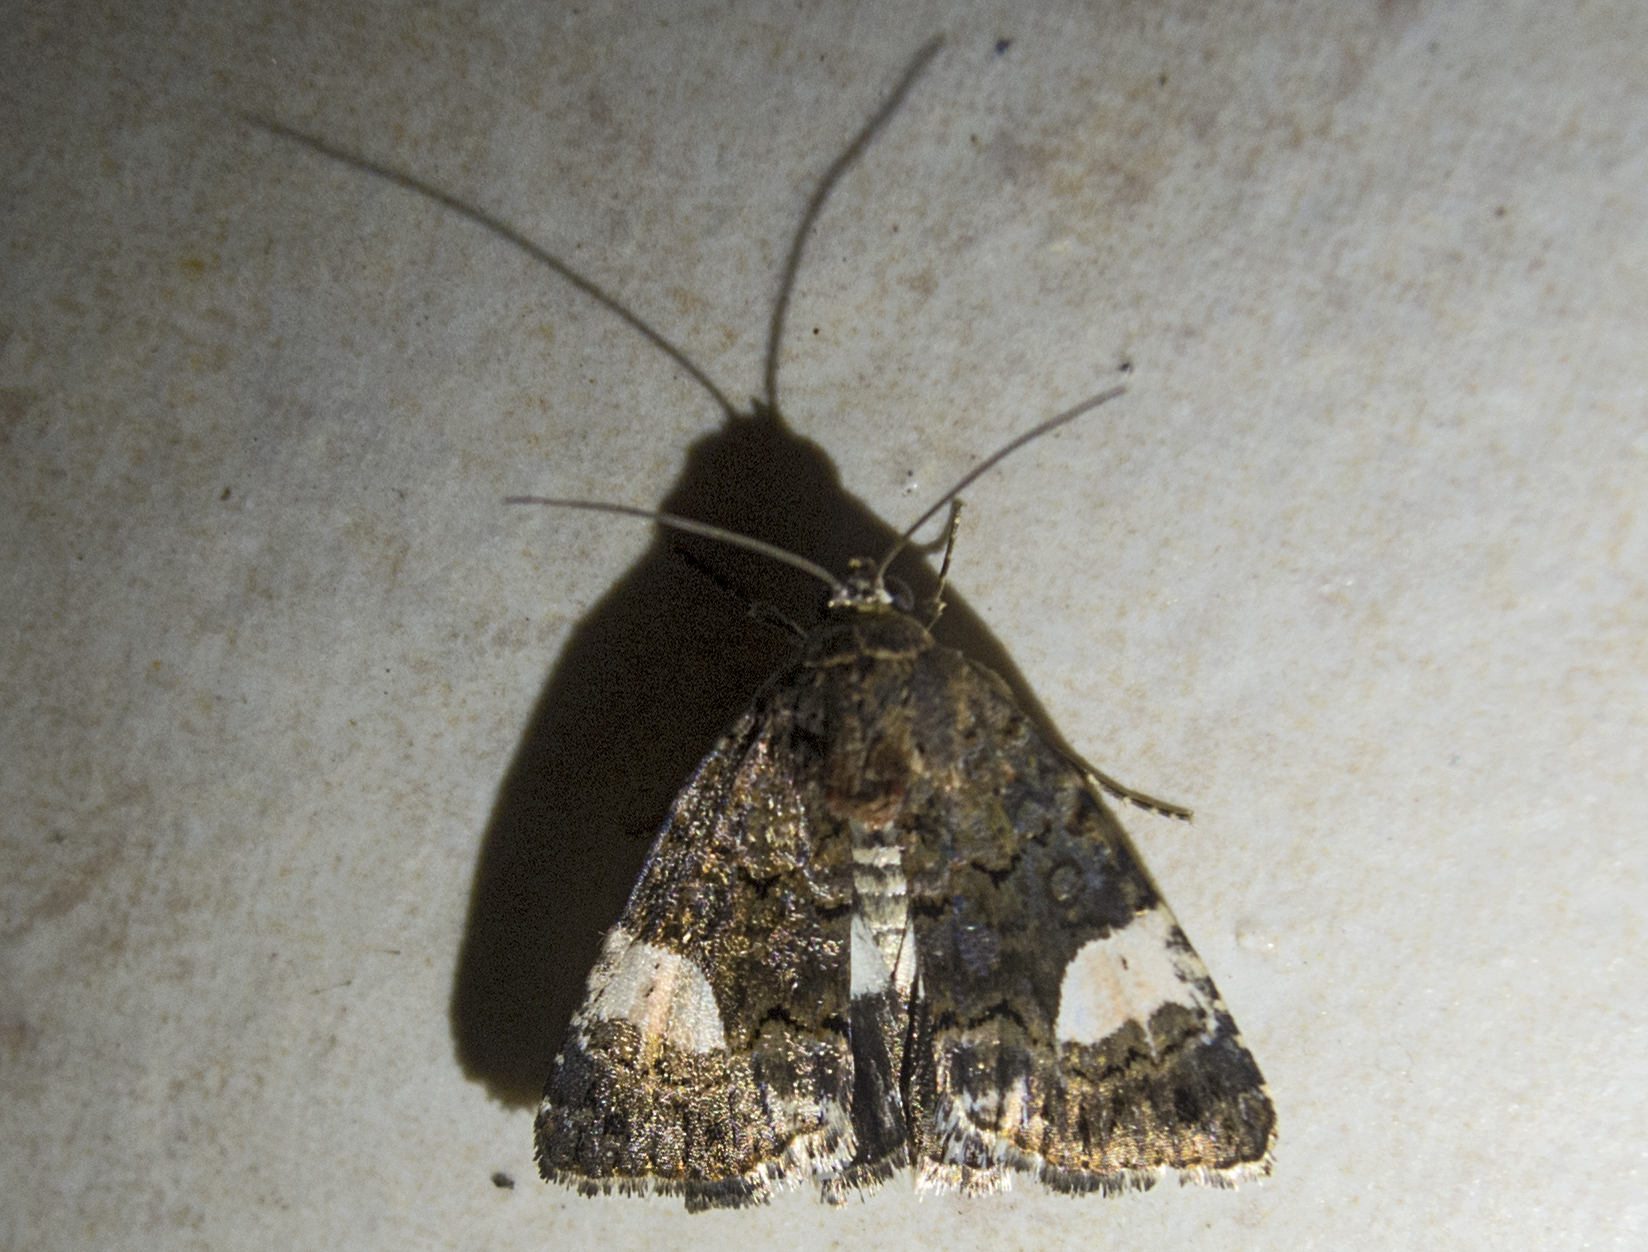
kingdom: Animalia
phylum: Arthropoda
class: Insecta
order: Lepidoptera
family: Erebidae
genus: Tyta
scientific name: Tyta luctuosa
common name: Four-spotted
